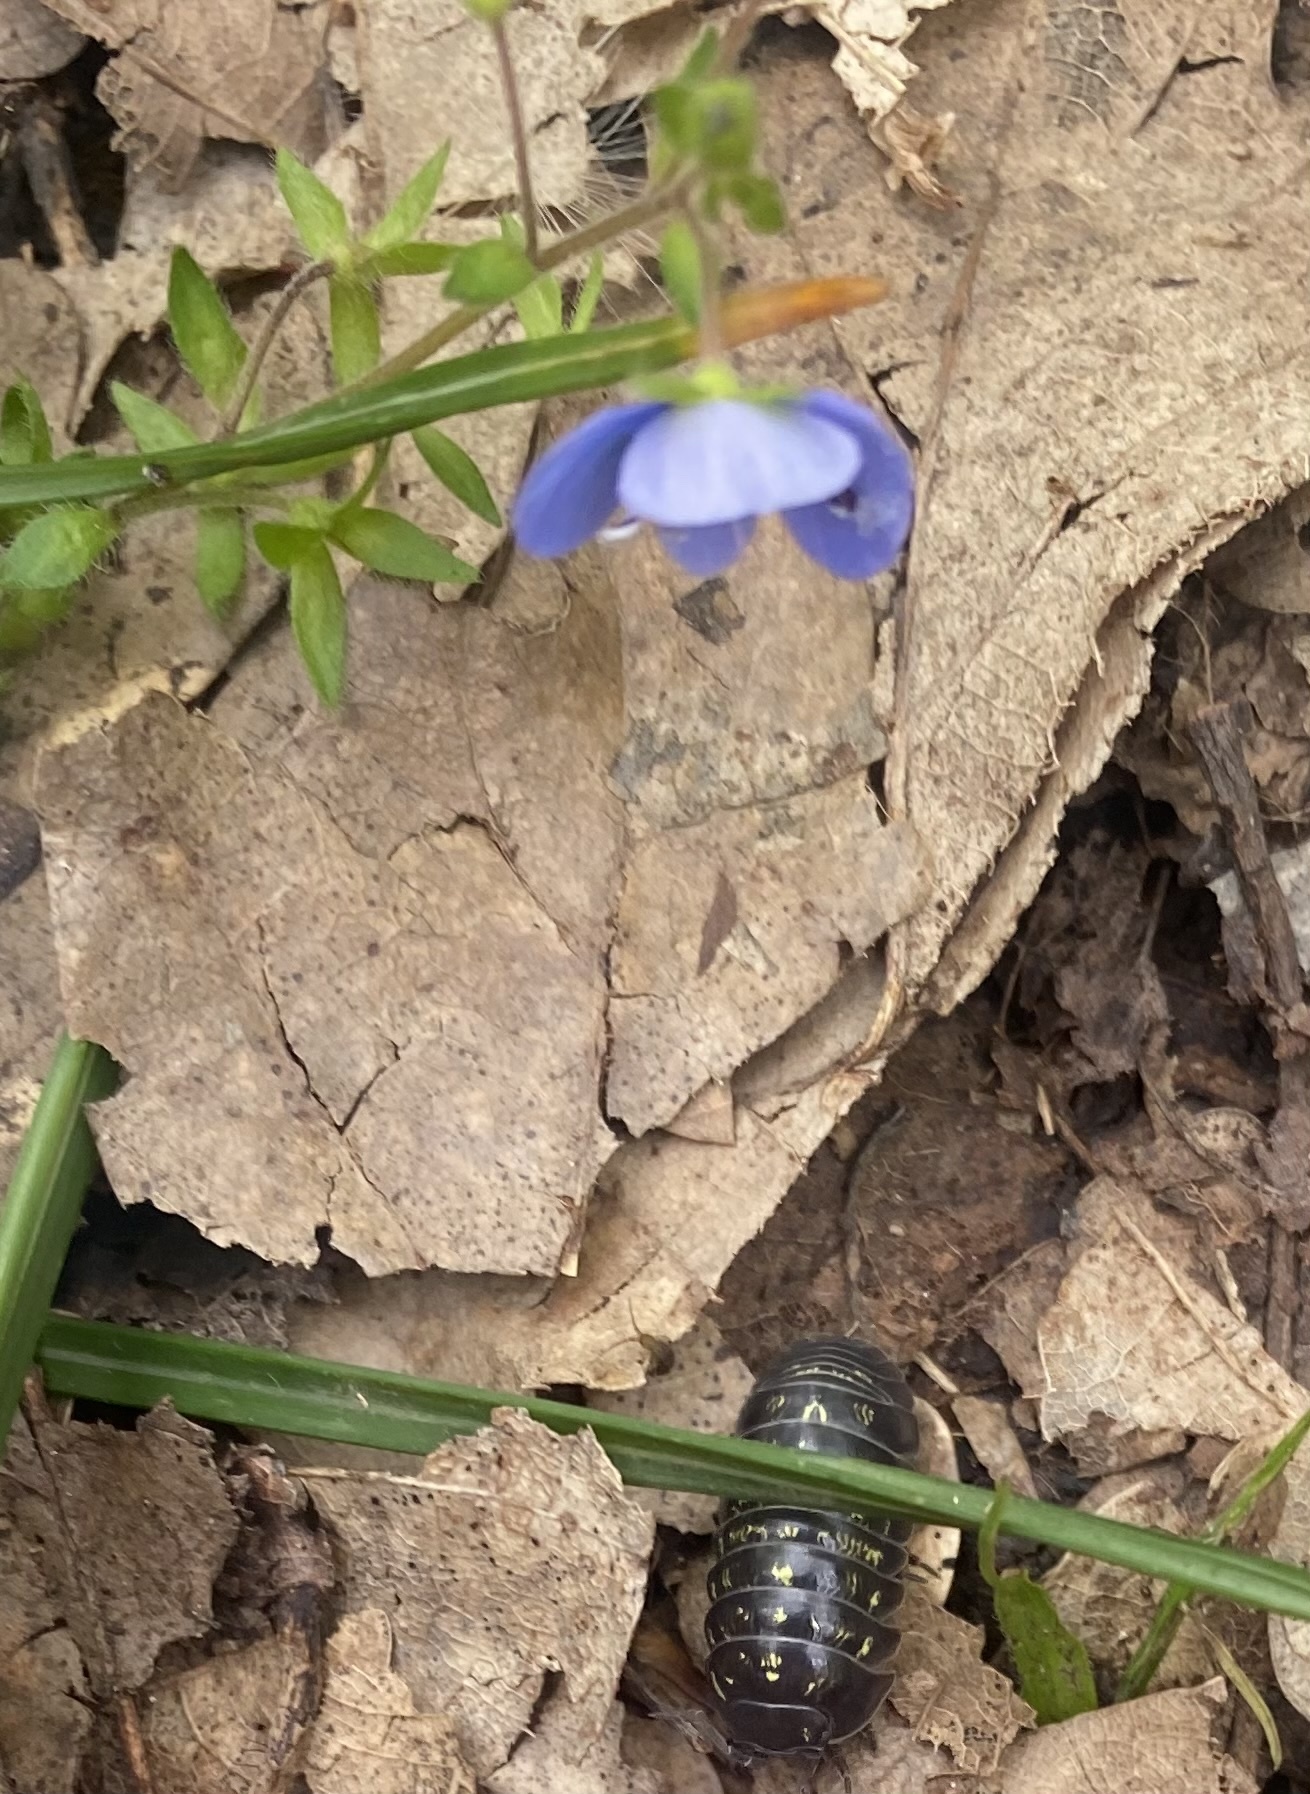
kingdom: Plantae
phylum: Tracheophyta
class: Magnoliopsida
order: Lamiales
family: Plantaginaceae
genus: Veronica
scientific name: Veronica
